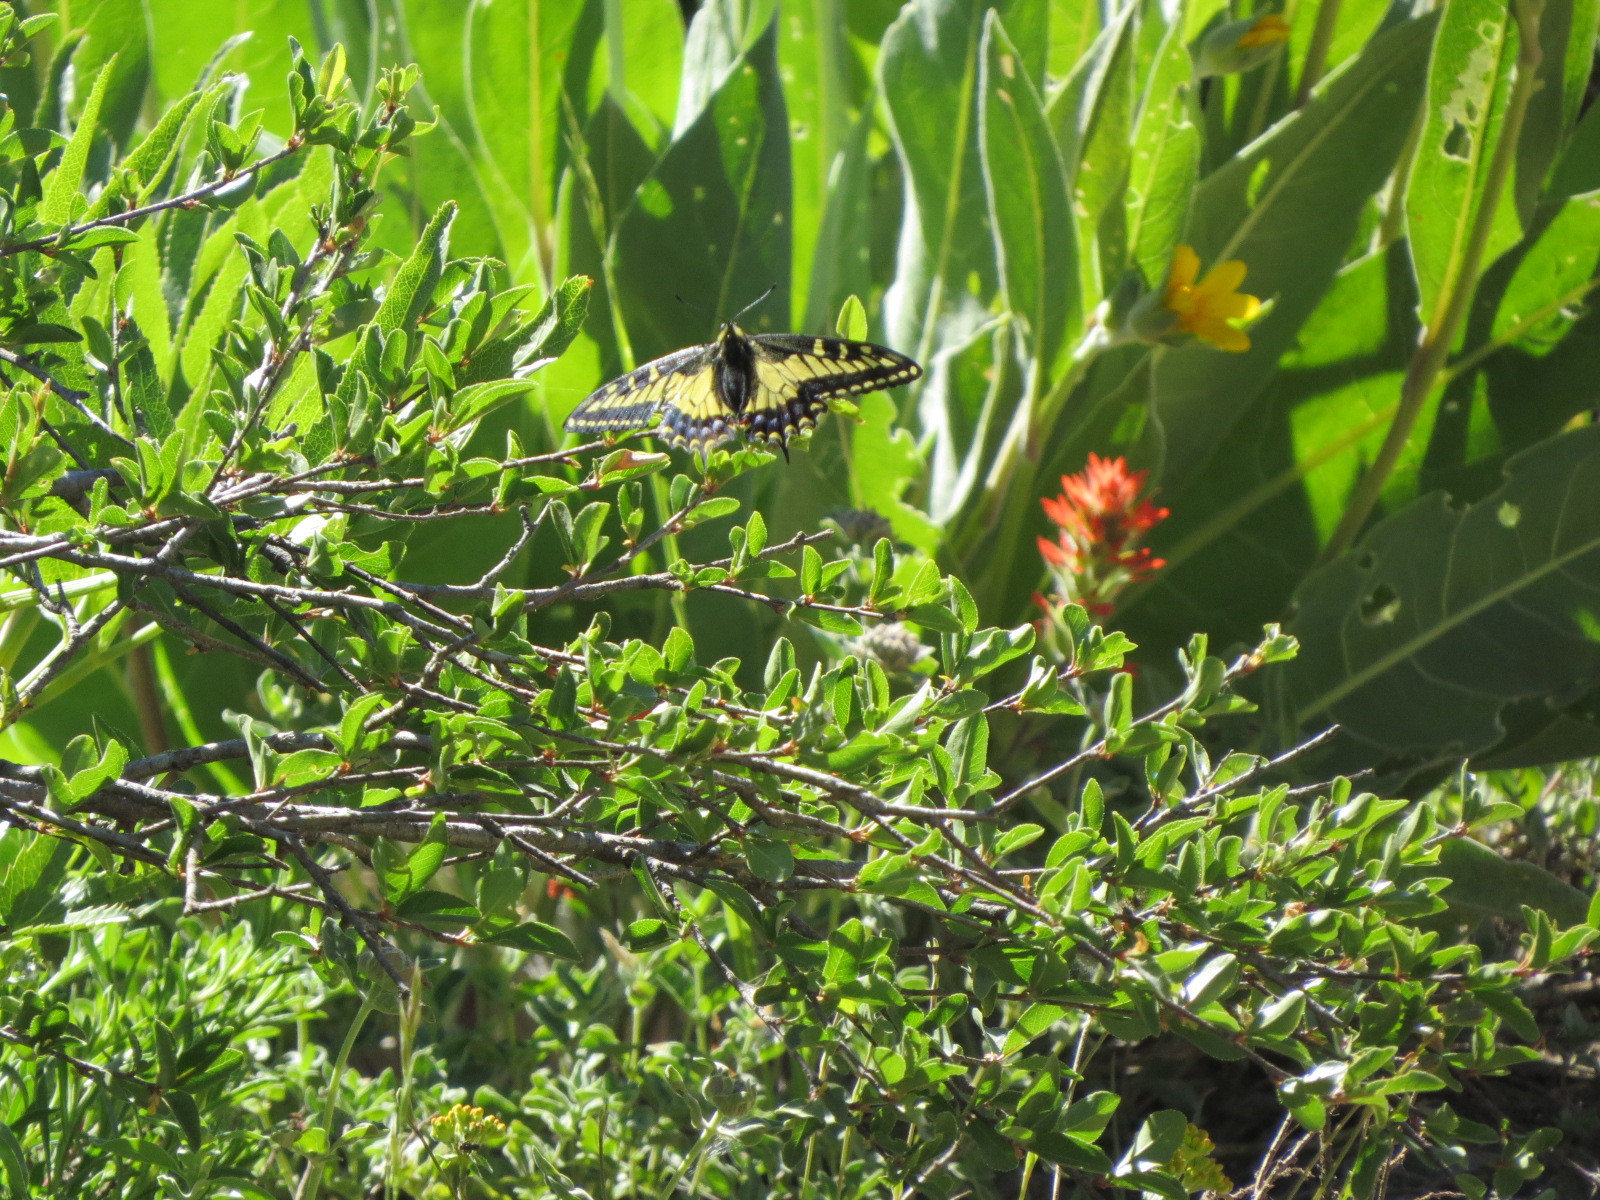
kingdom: Animalia
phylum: Arthropoda
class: Insecta
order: Lepidoptera
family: Papilionidae
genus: Papilio
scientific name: Papilio zelicaon
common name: Anise swallowtail
